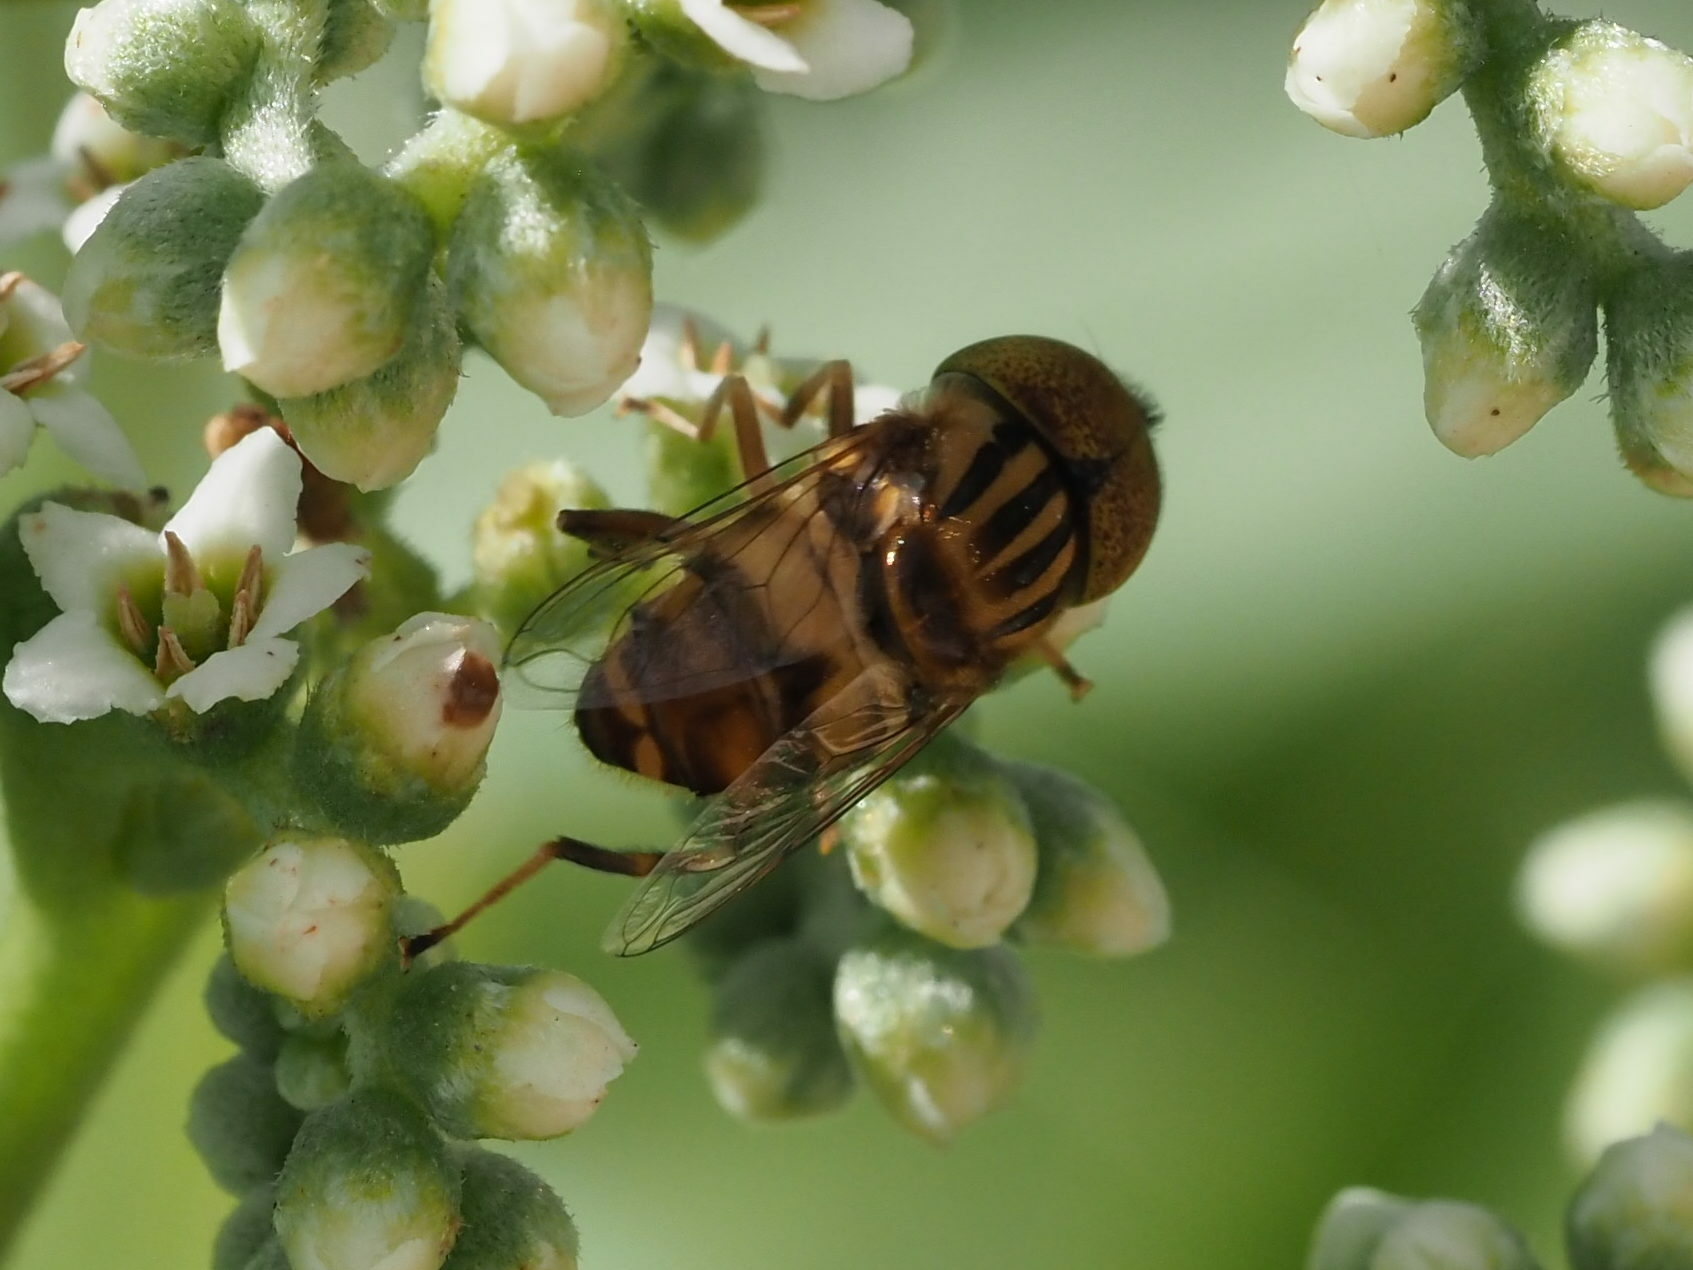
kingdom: Animalia
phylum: Arthropoda
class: Insecta
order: Diptera
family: Syrphidae
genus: Eristalinus
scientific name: Eristalinus arvorum
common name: Syrphid fly
